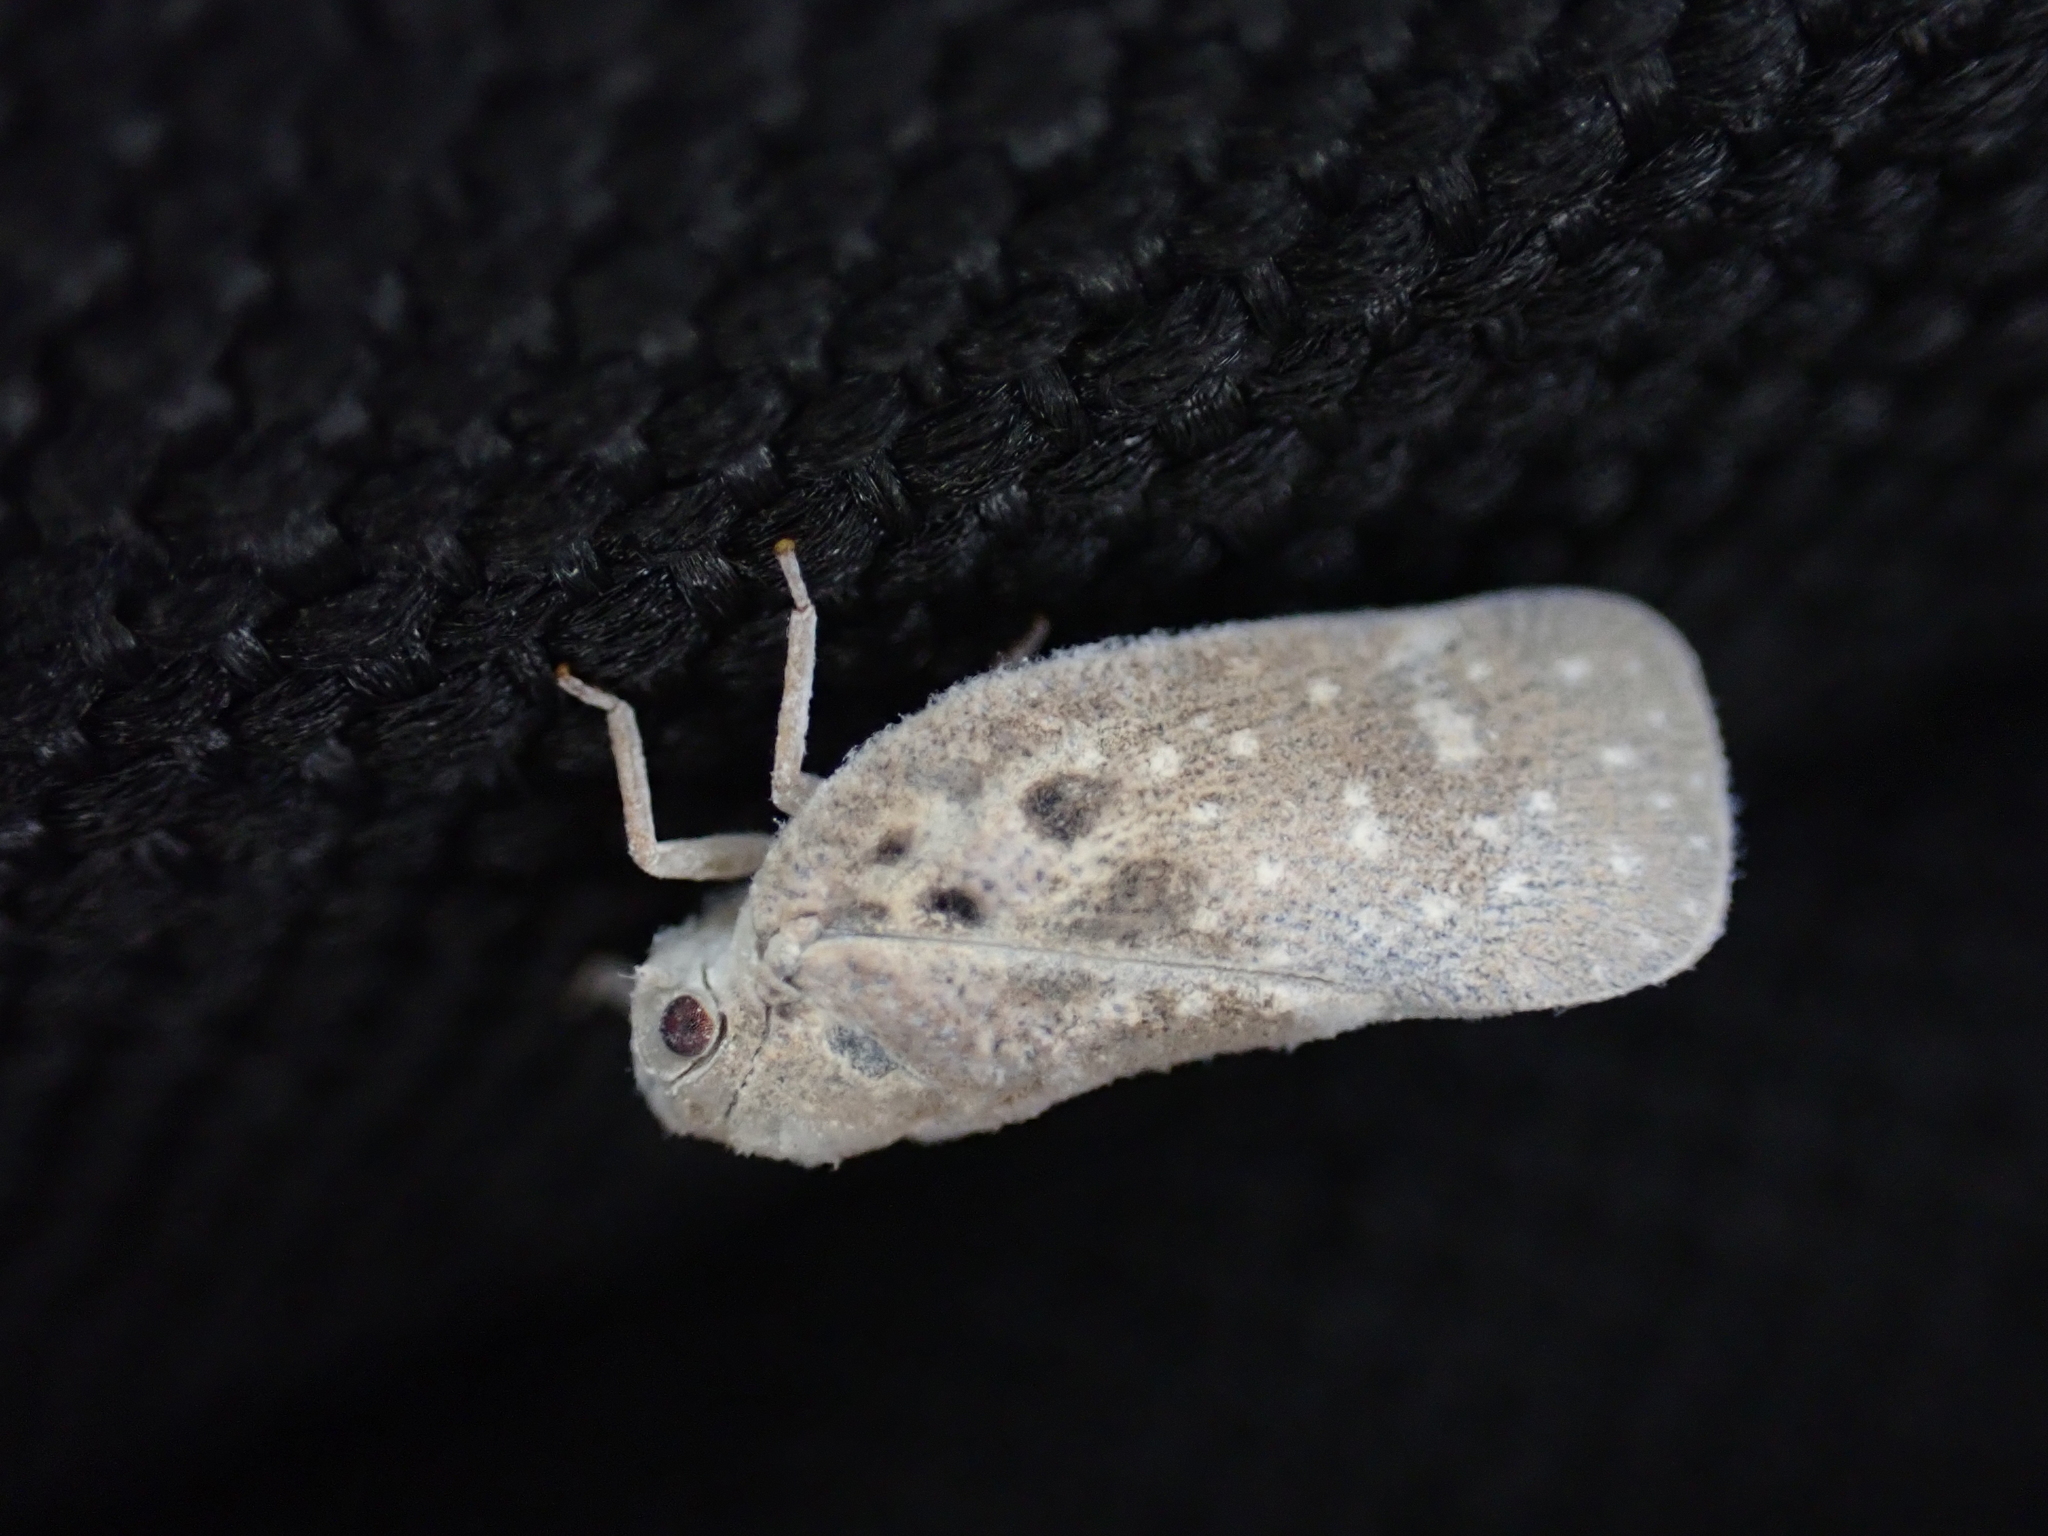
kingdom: Animalia
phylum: Arthropoda
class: Insecta
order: Hemiptera
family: Flatidae
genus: Metcalfa
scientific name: Metcalfa pruinosa
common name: Citrus flatid planthopper
